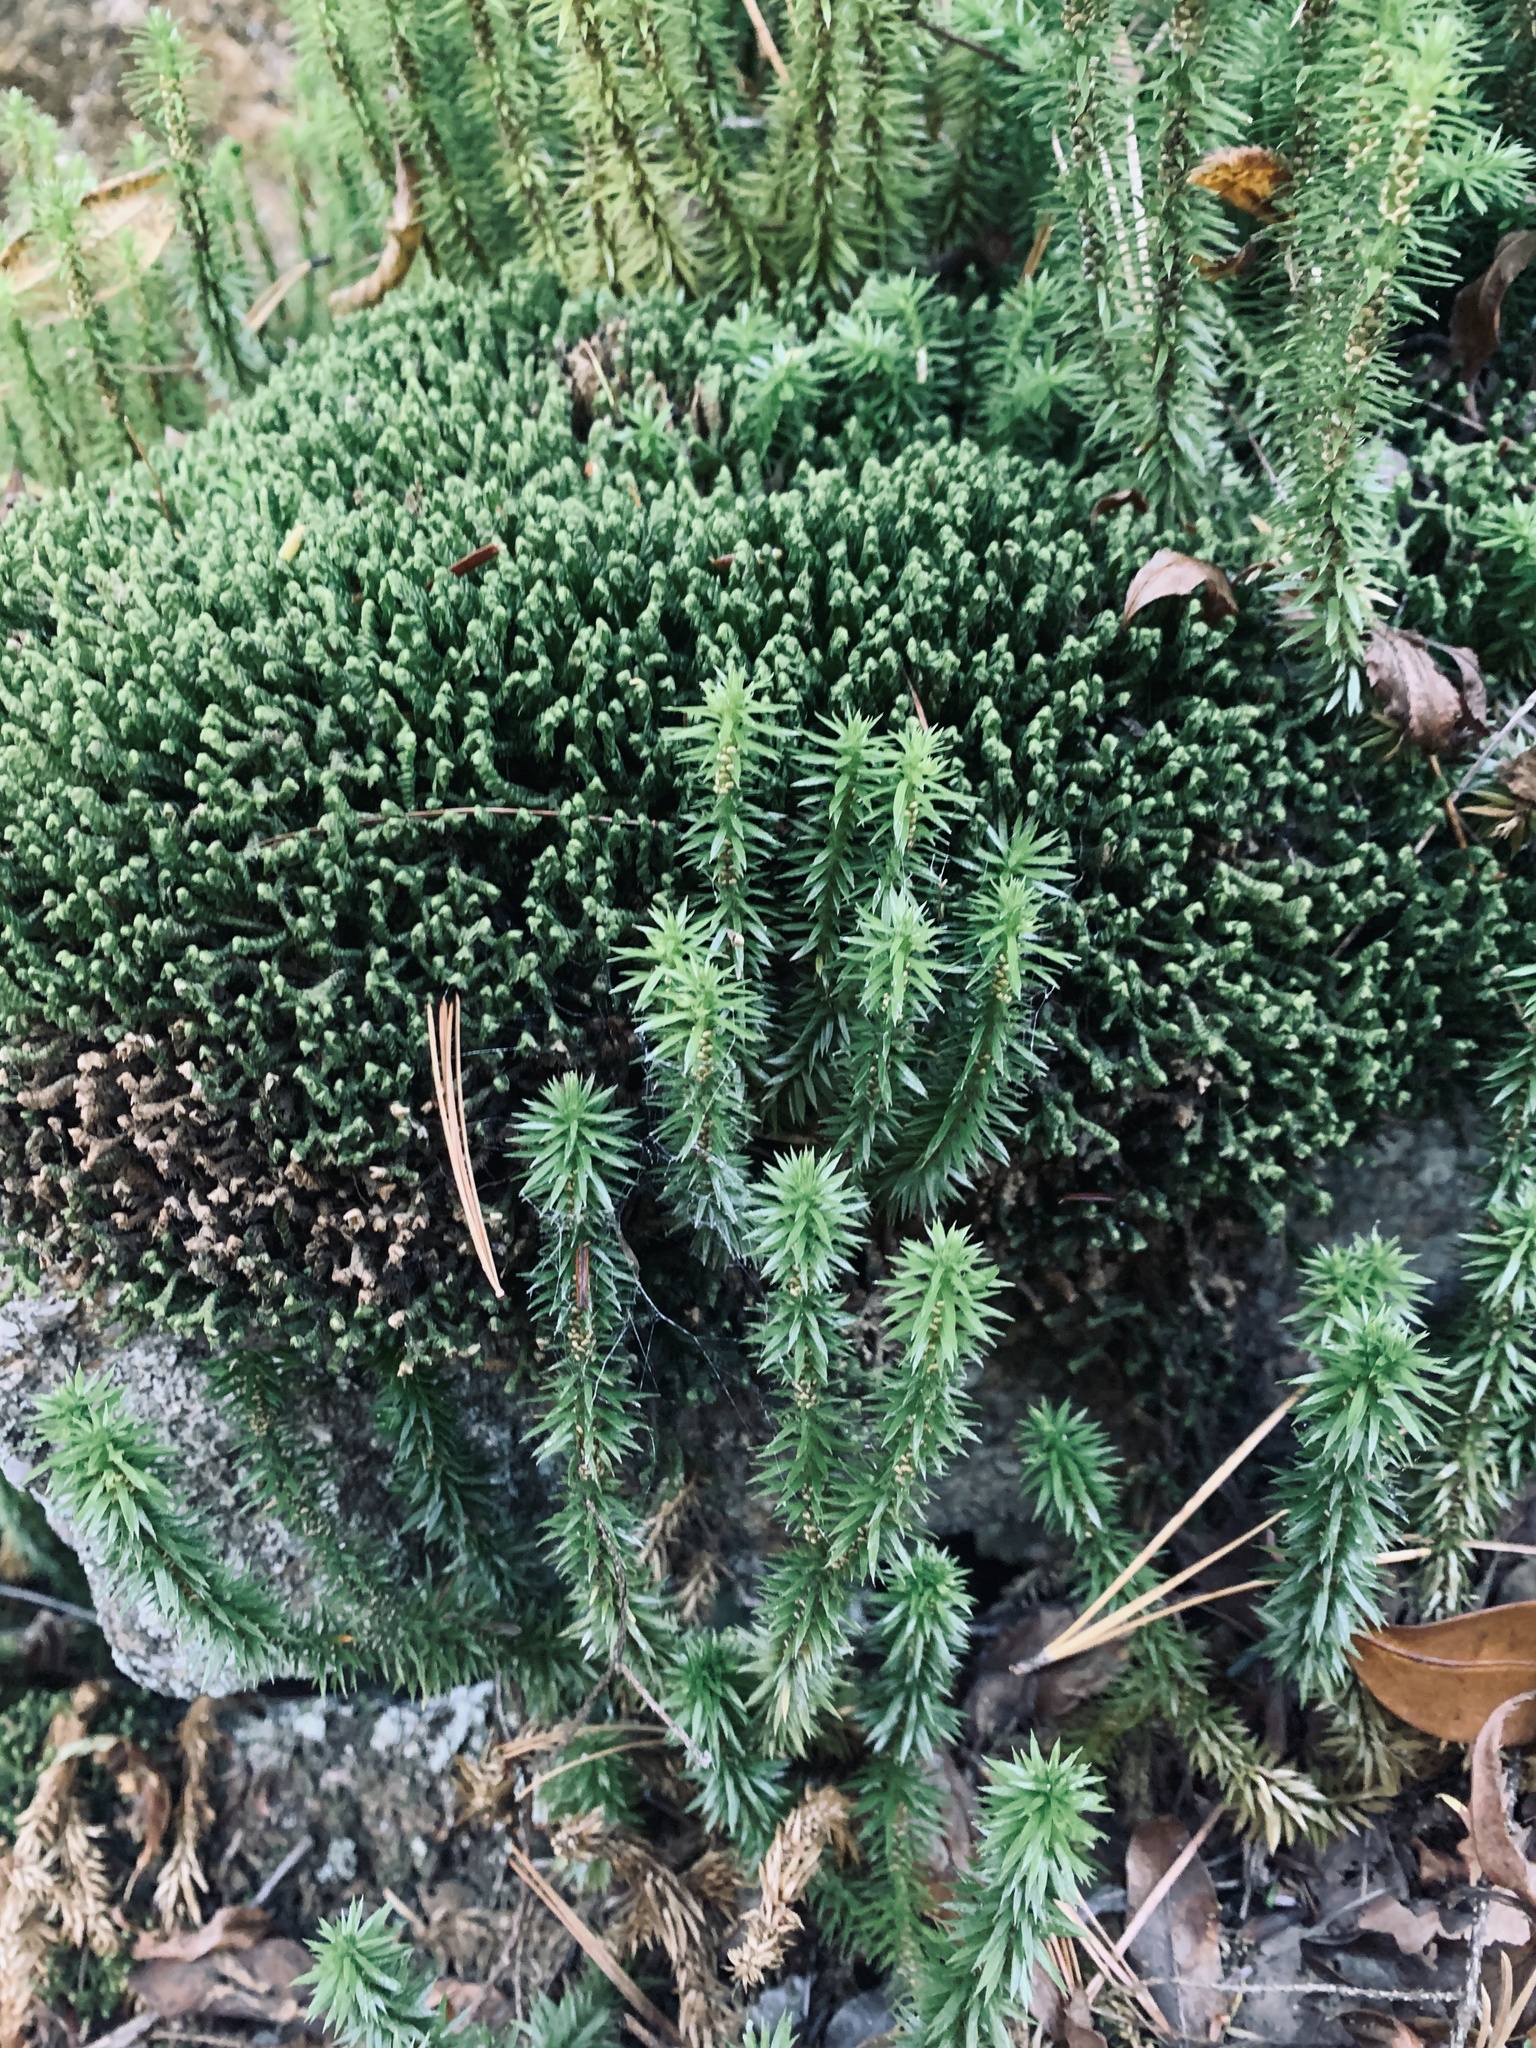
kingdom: Plantae
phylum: Tracheophyta
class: Lycopodiopsida
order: Lycopodiales
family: Lycopodiaceae
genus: Huperzia
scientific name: Huperzia lucidula
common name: Shining clubmoss
